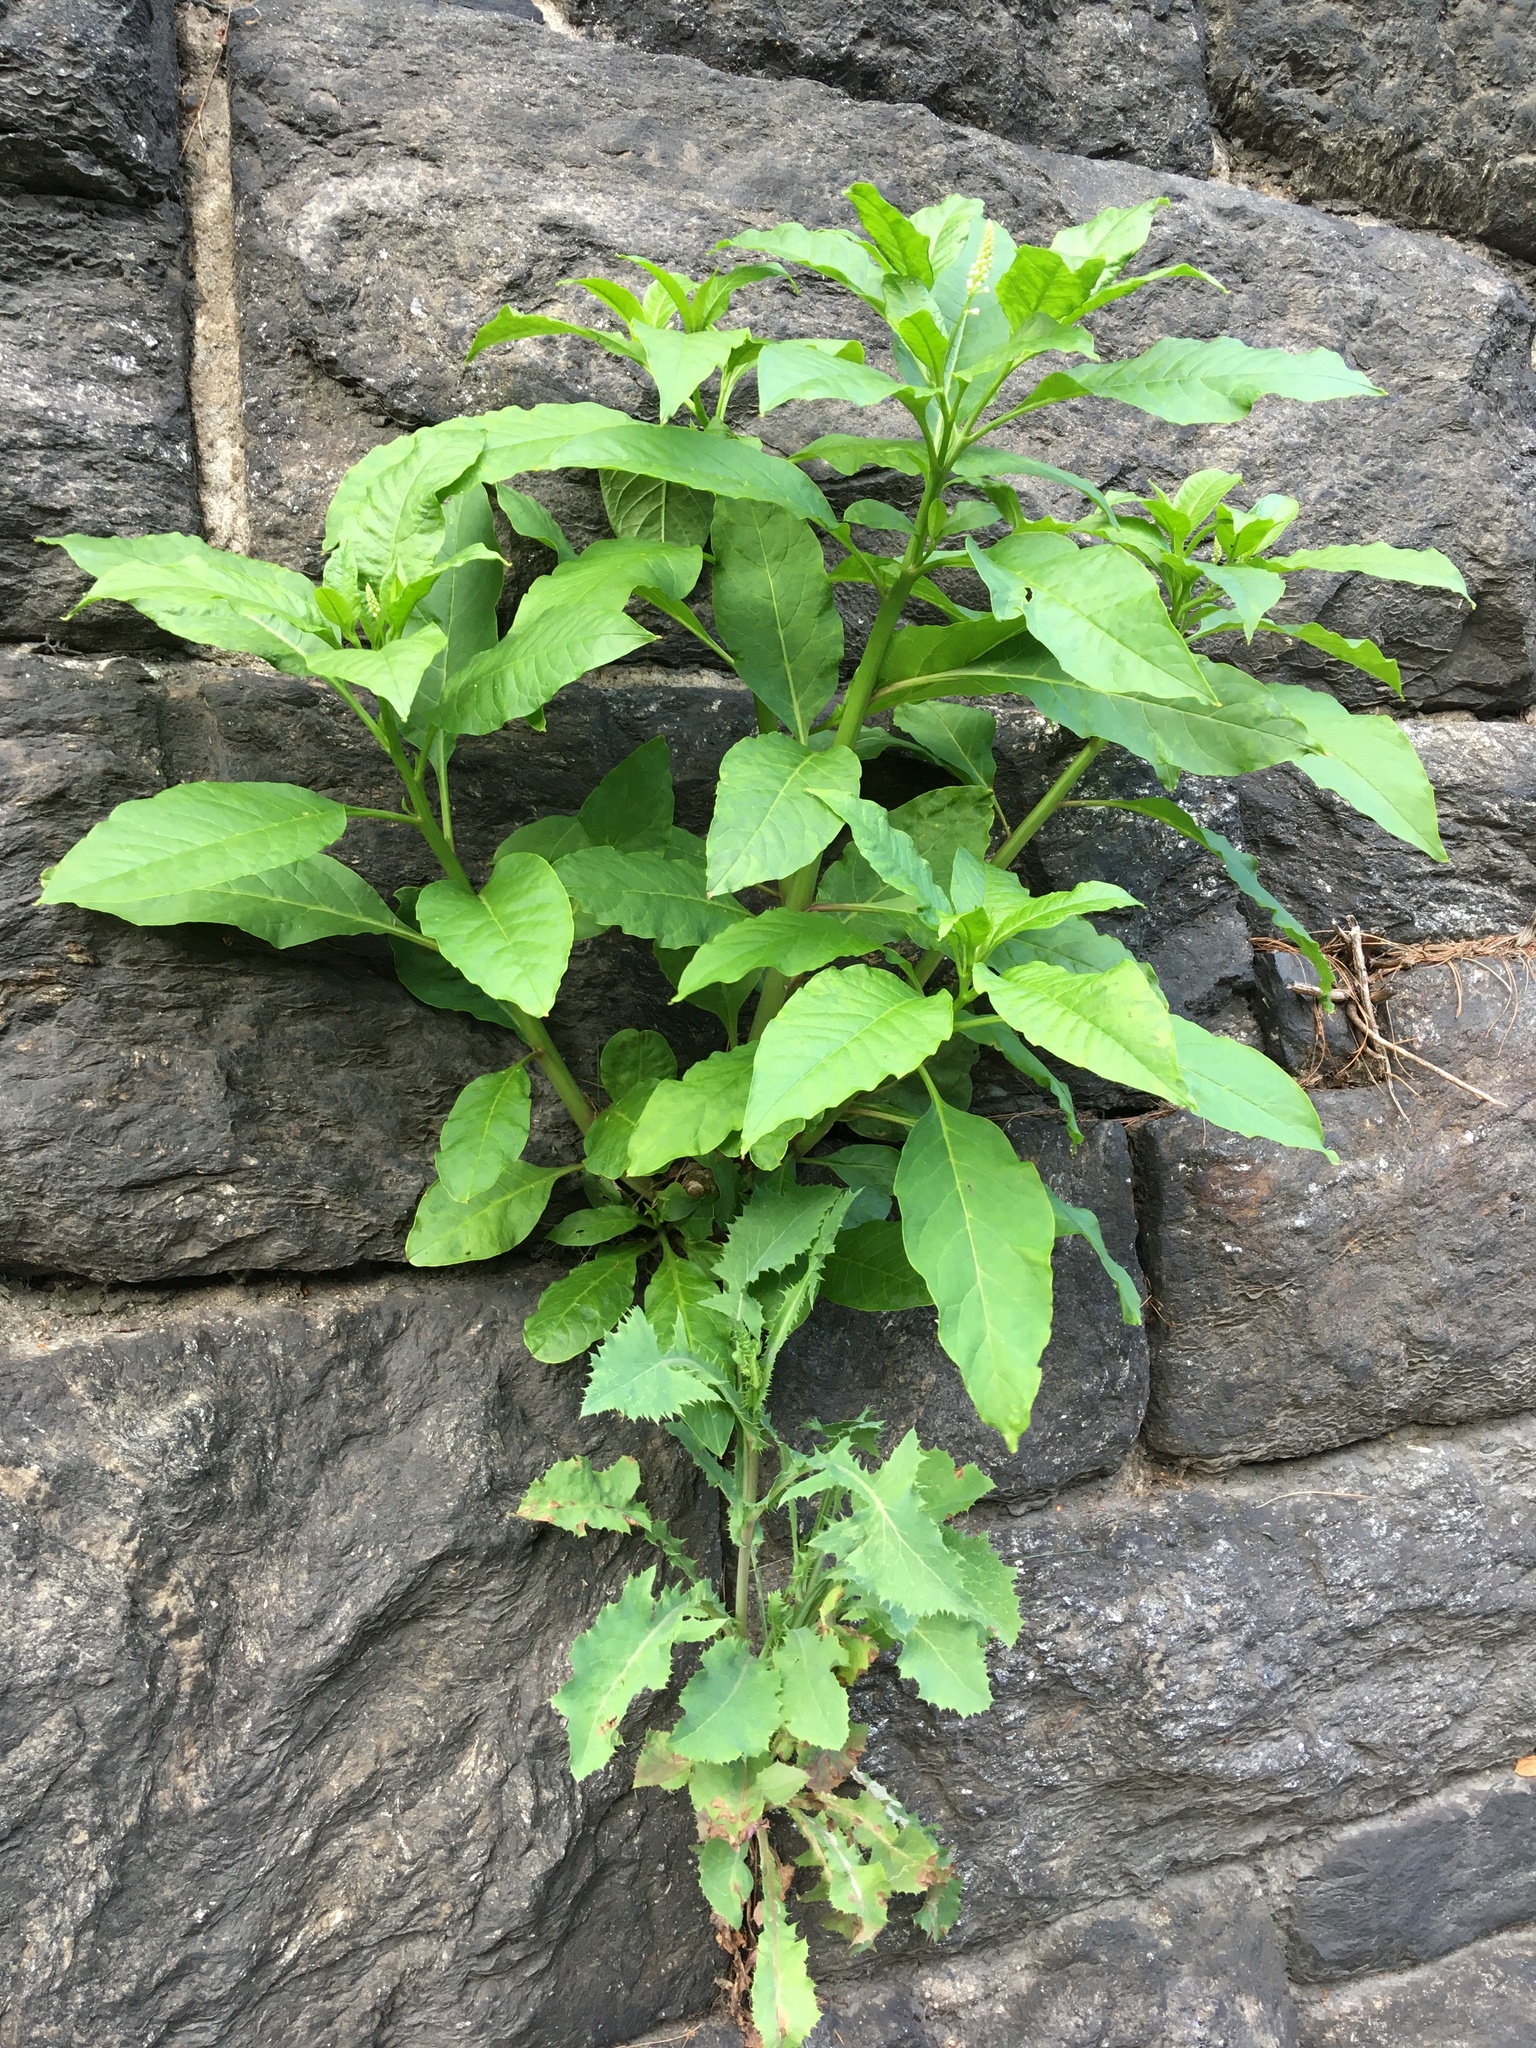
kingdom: Plantae
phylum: Tracheophyta
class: Magnoliopsida
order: Caryophyllales
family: Phytolaccaceae
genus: Phytolacca
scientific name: Phytolacca americana
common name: American pokeweed
